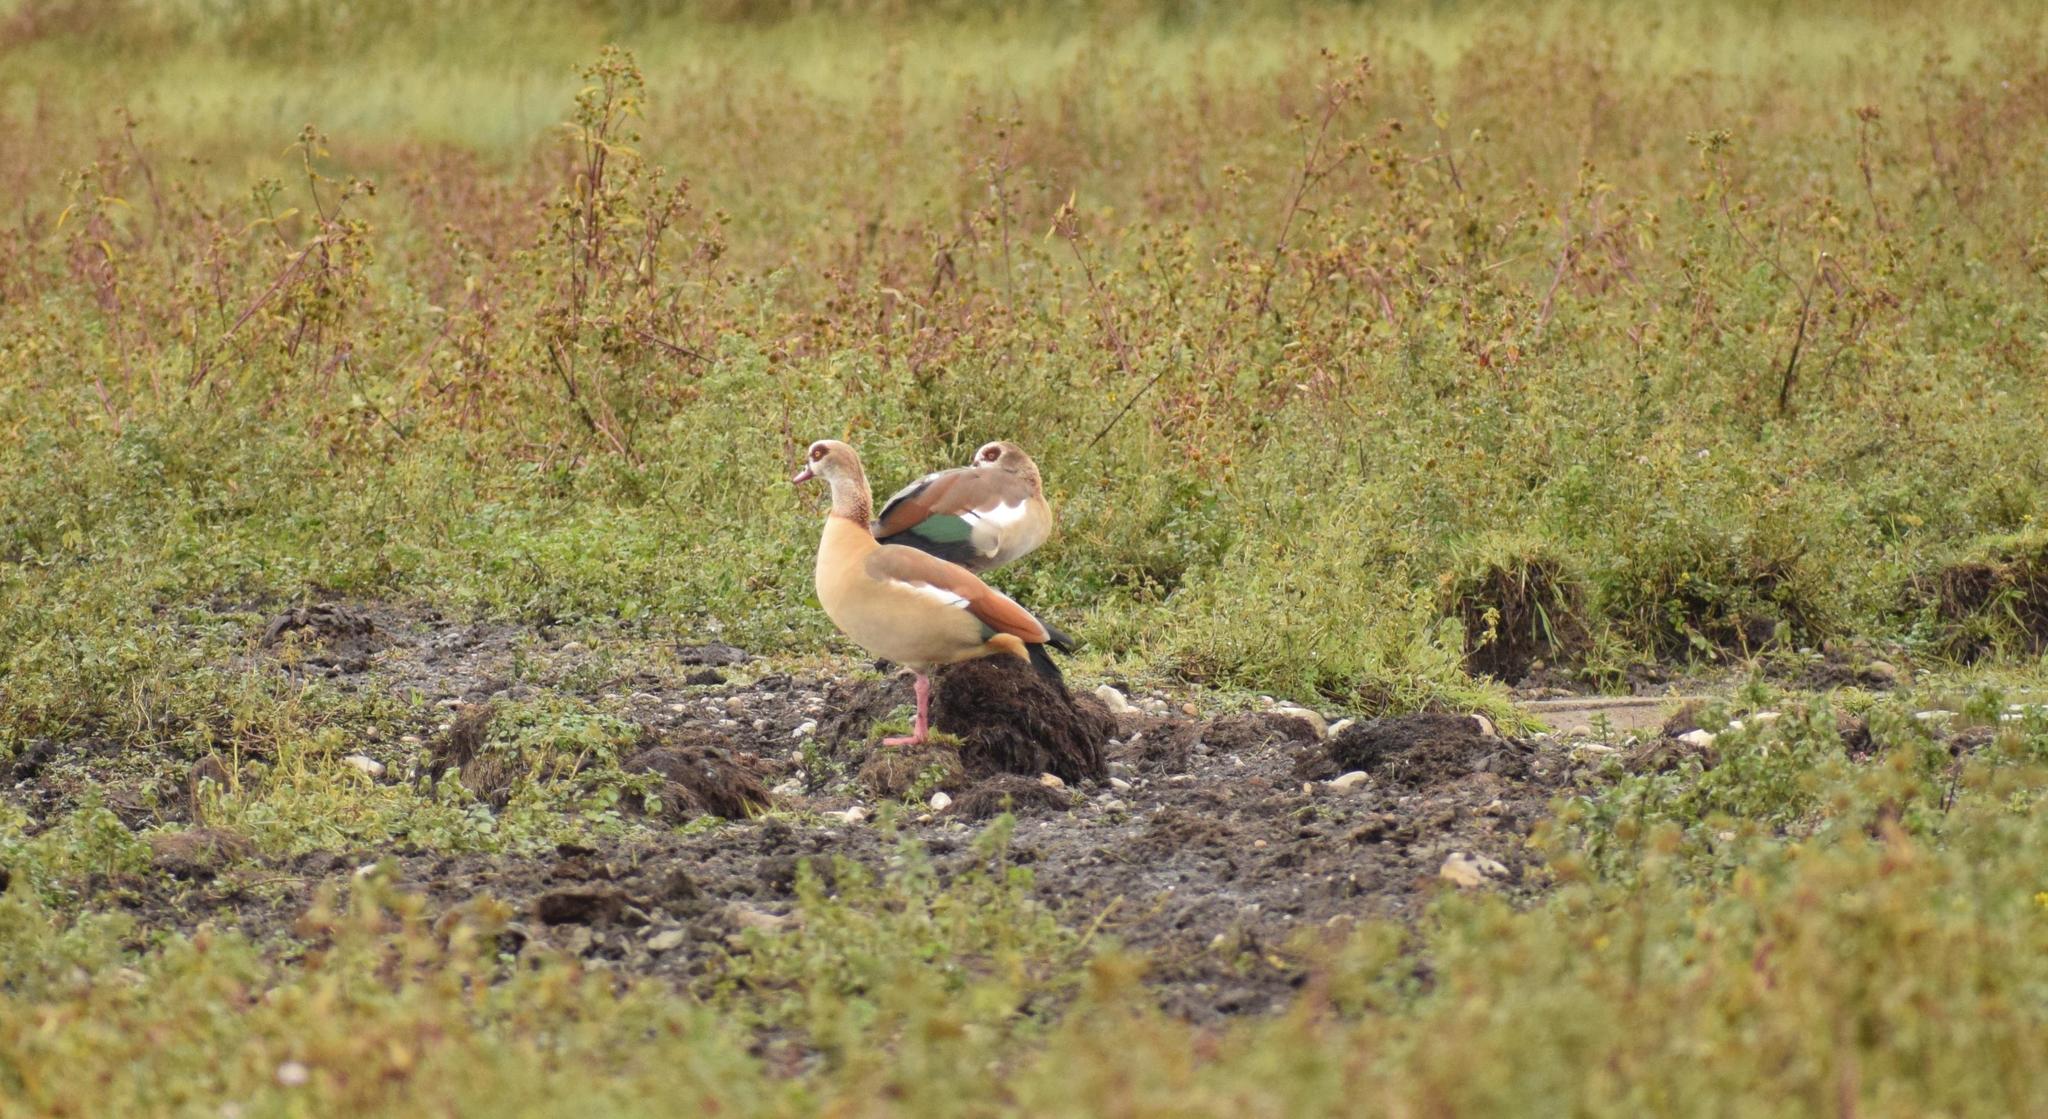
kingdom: Animalia
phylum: Chordata
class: Aves
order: Anseriformes
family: Anatidae
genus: Alopochen
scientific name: Alopochen aegyptiaca
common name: Egyptian goose
